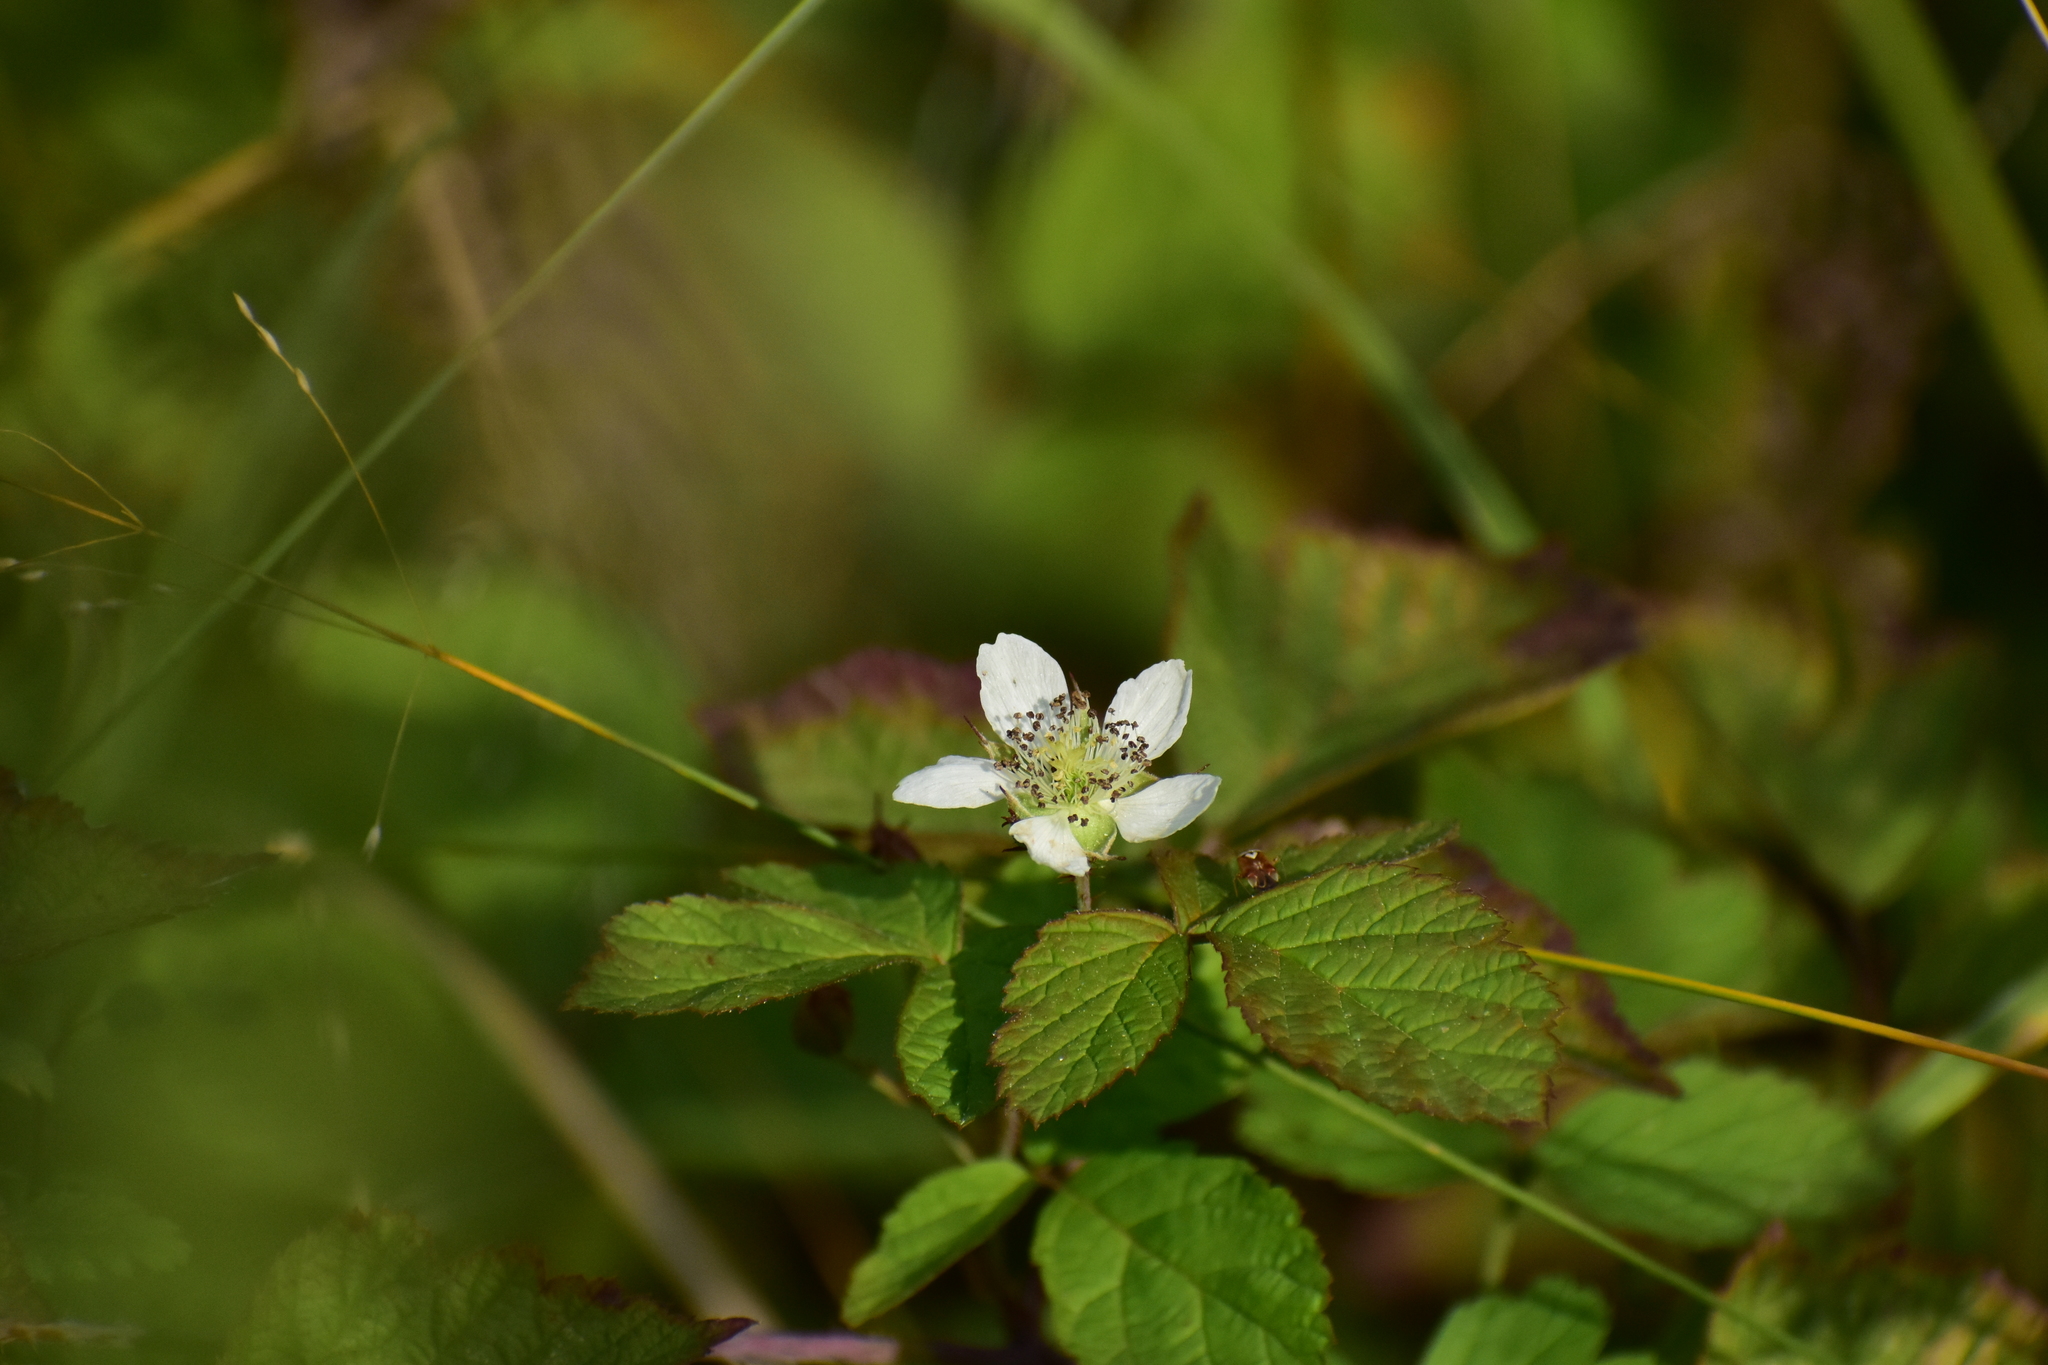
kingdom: Plantae
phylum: Tracheophyta
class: Magnoliopsida
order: Rosales
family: Rosaceae
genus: Rubus
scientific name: Rubus caesius
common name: Dewberry
